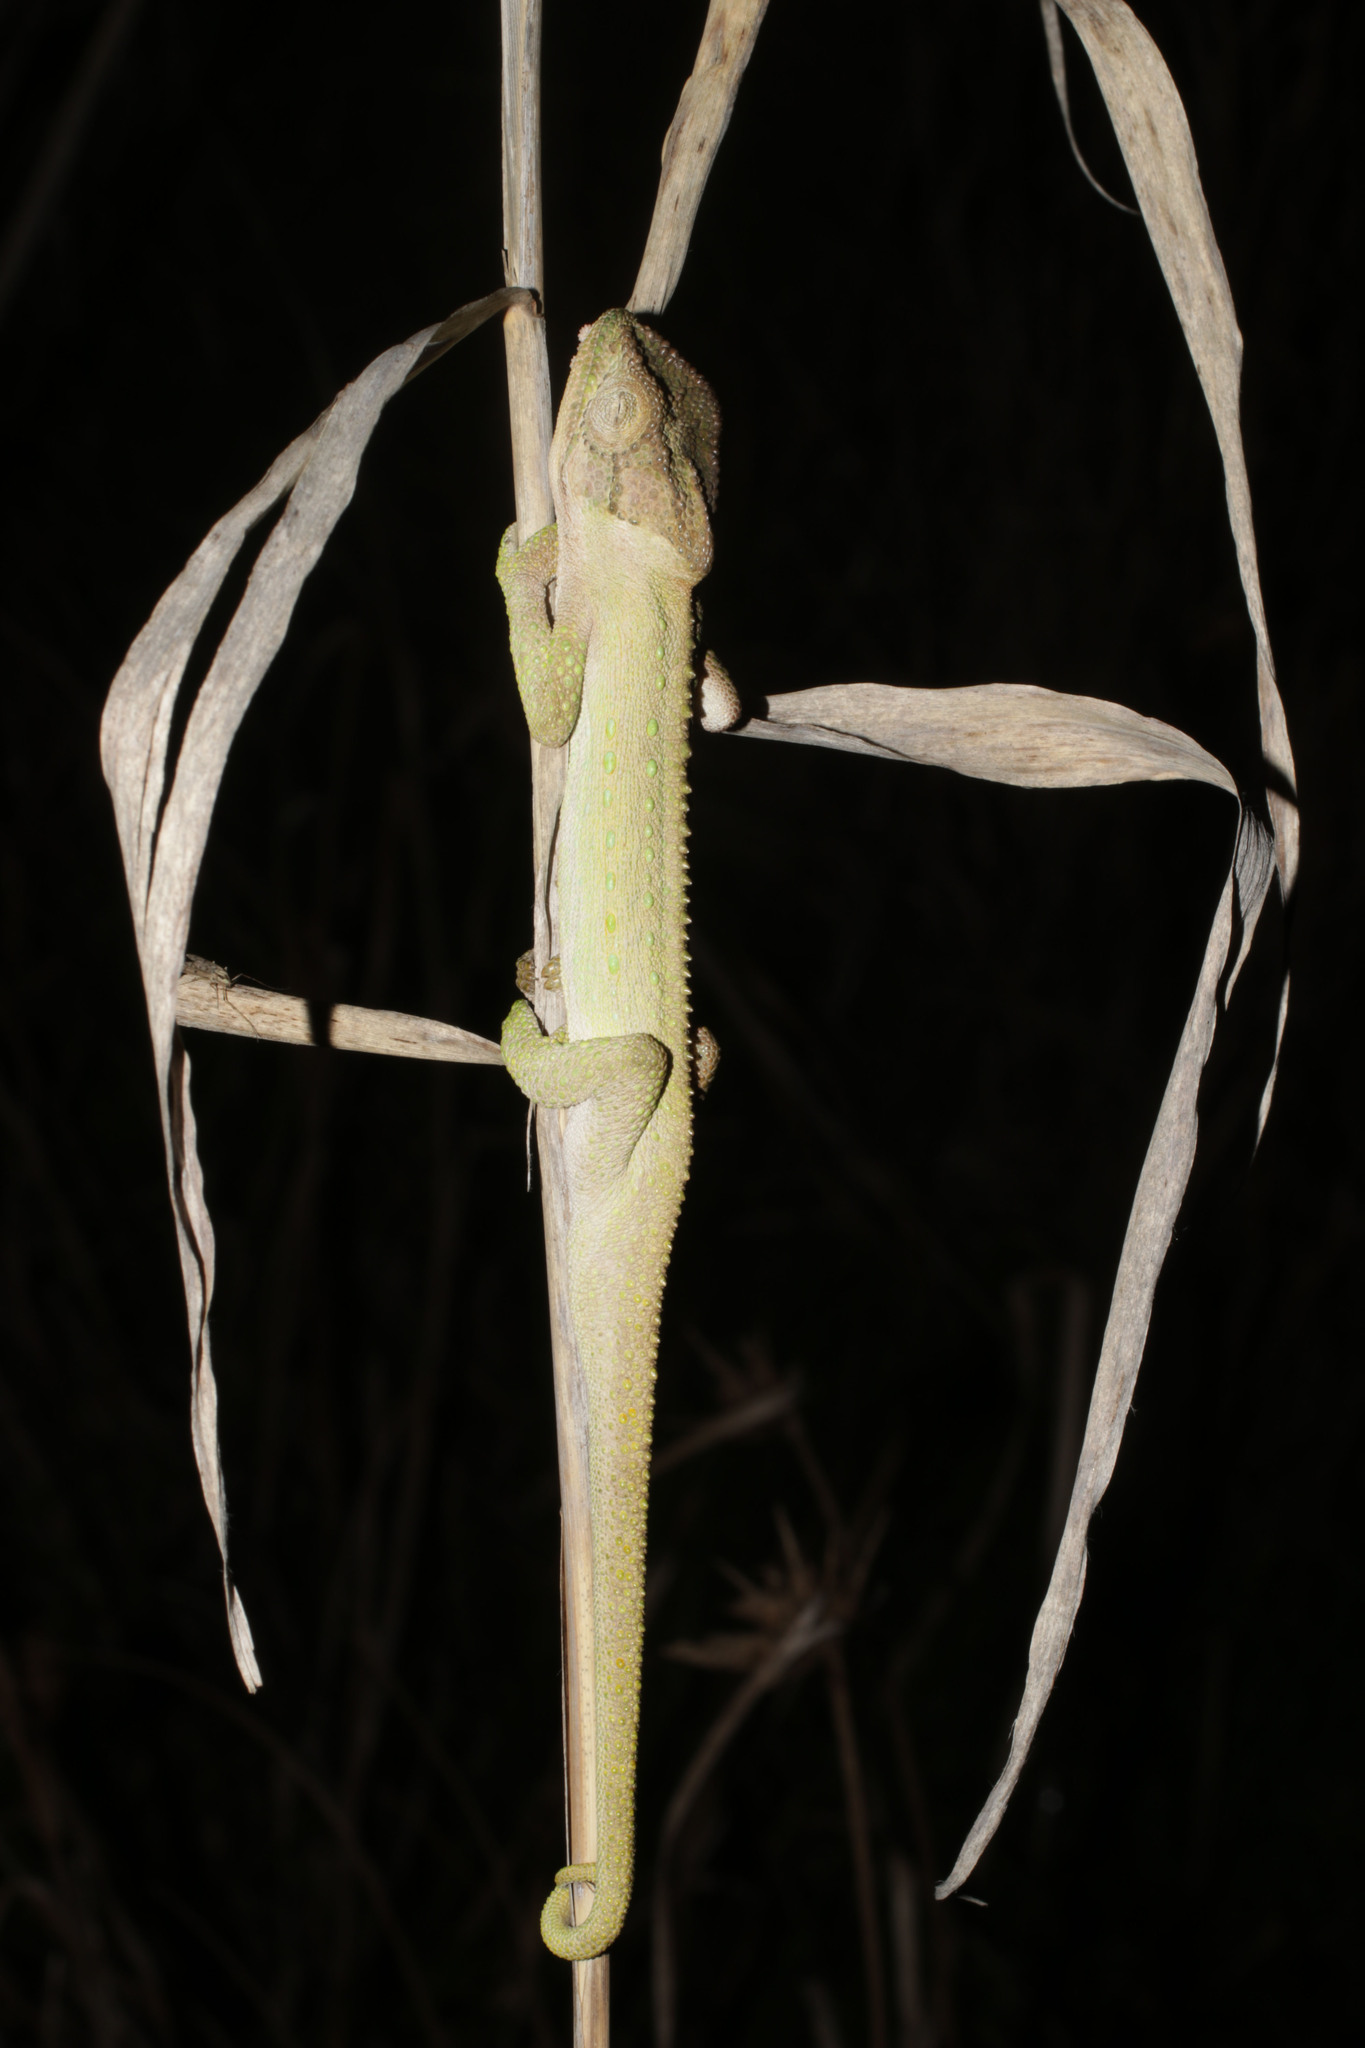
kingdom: Animalia
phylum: Chordata
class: Squamata
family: Chamaeleonidae
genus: Bradypodion
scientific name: Bradypodion pumilum
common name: Cape dwarf chameleon
